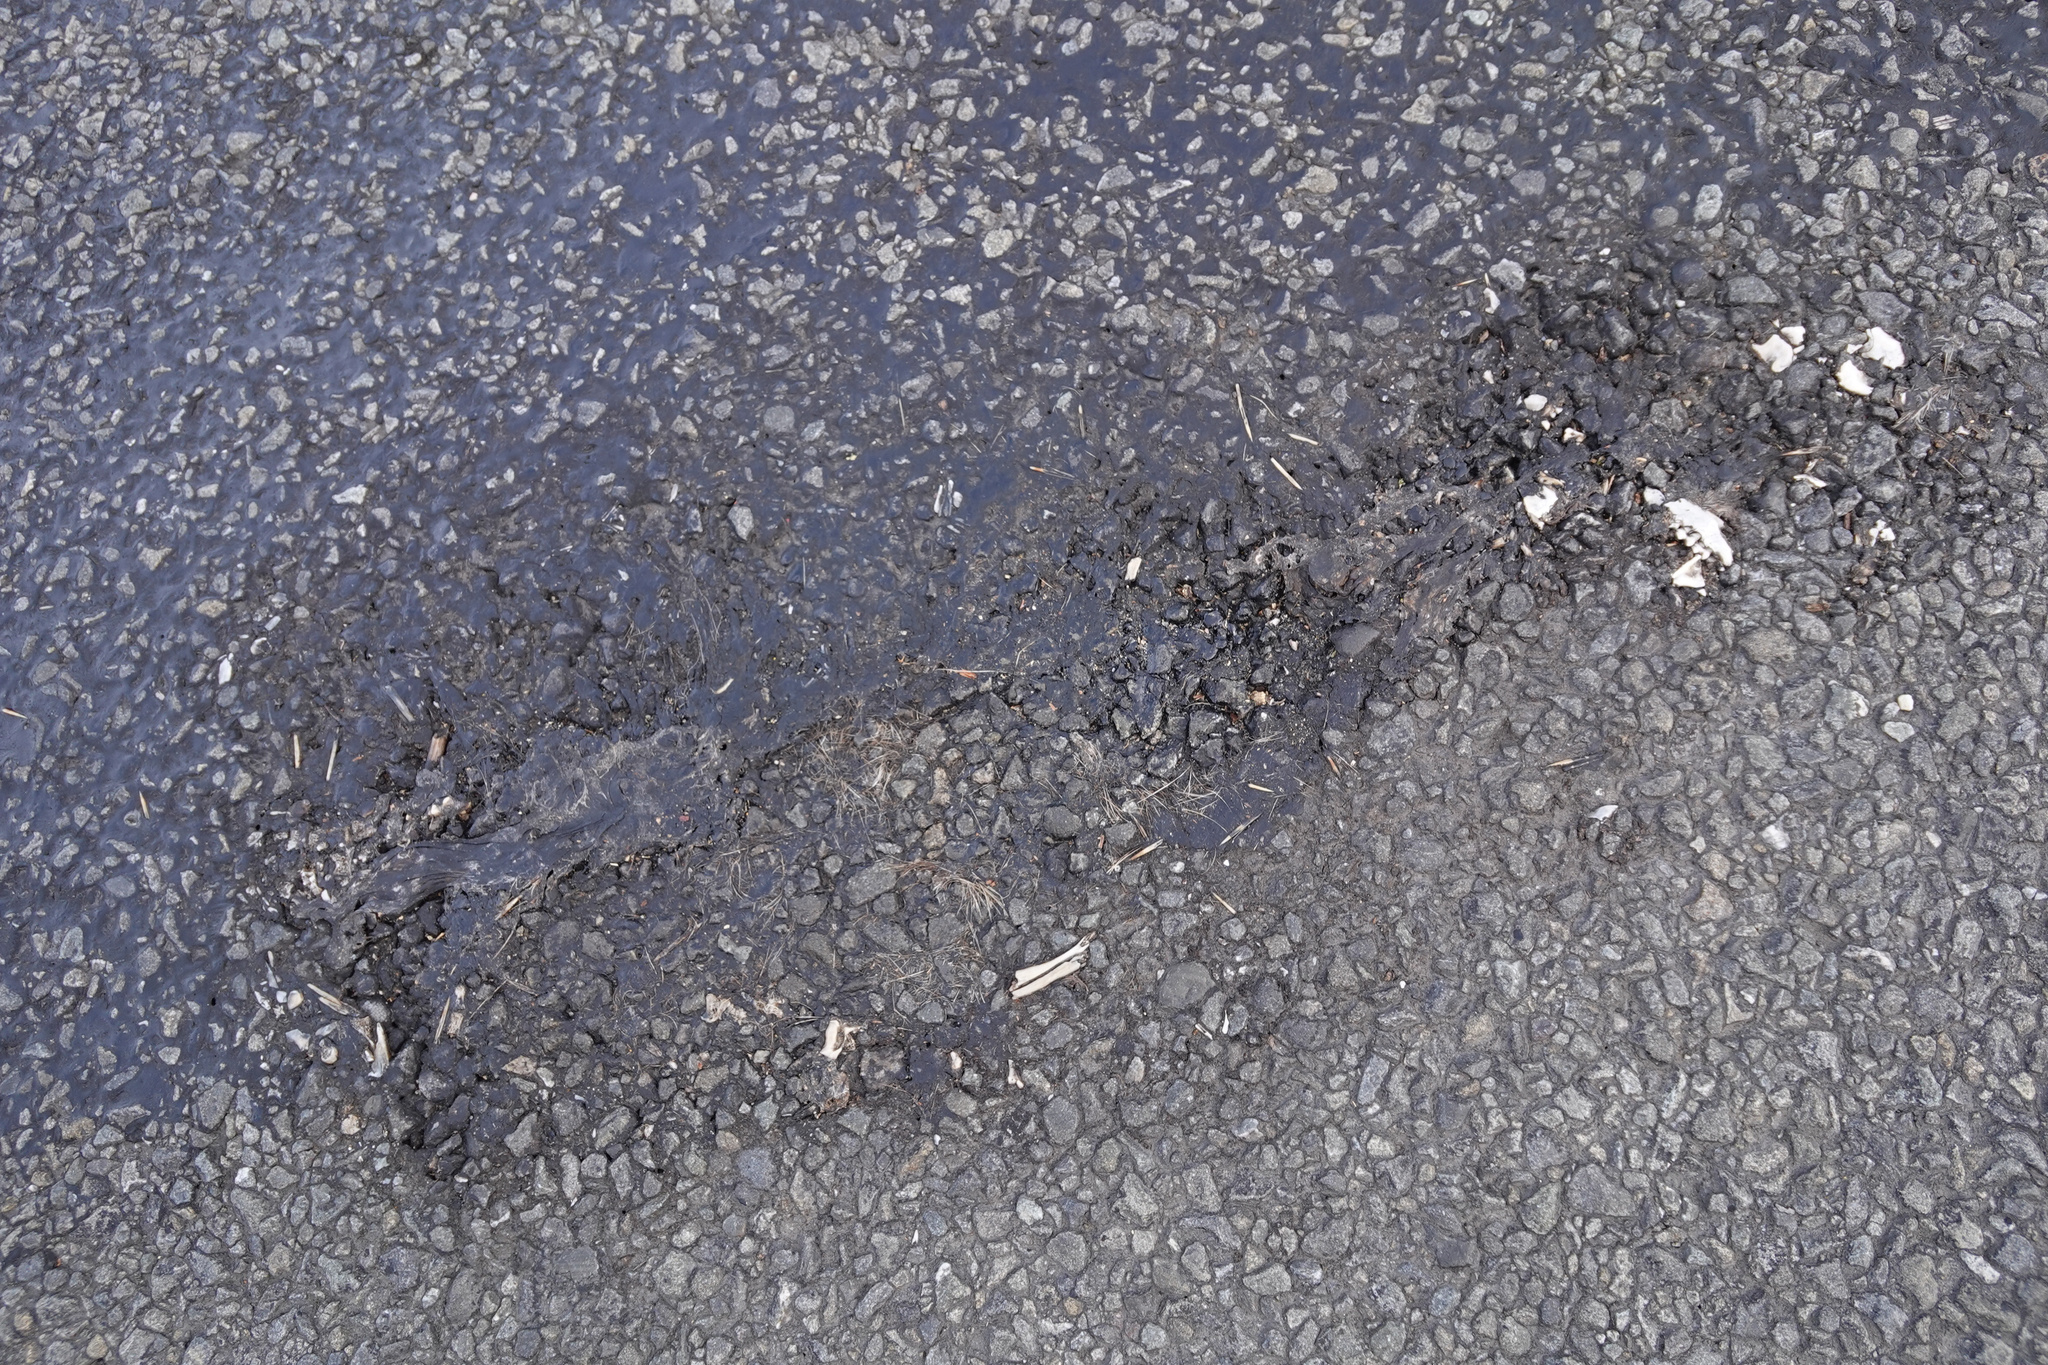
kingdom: Animalia
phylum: Chordata
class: Mammalia
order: Erinaceomorpha
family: Erinaceidae
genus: Erinaceus
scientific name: Erinaceus europaeus
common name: West european hedgehog
